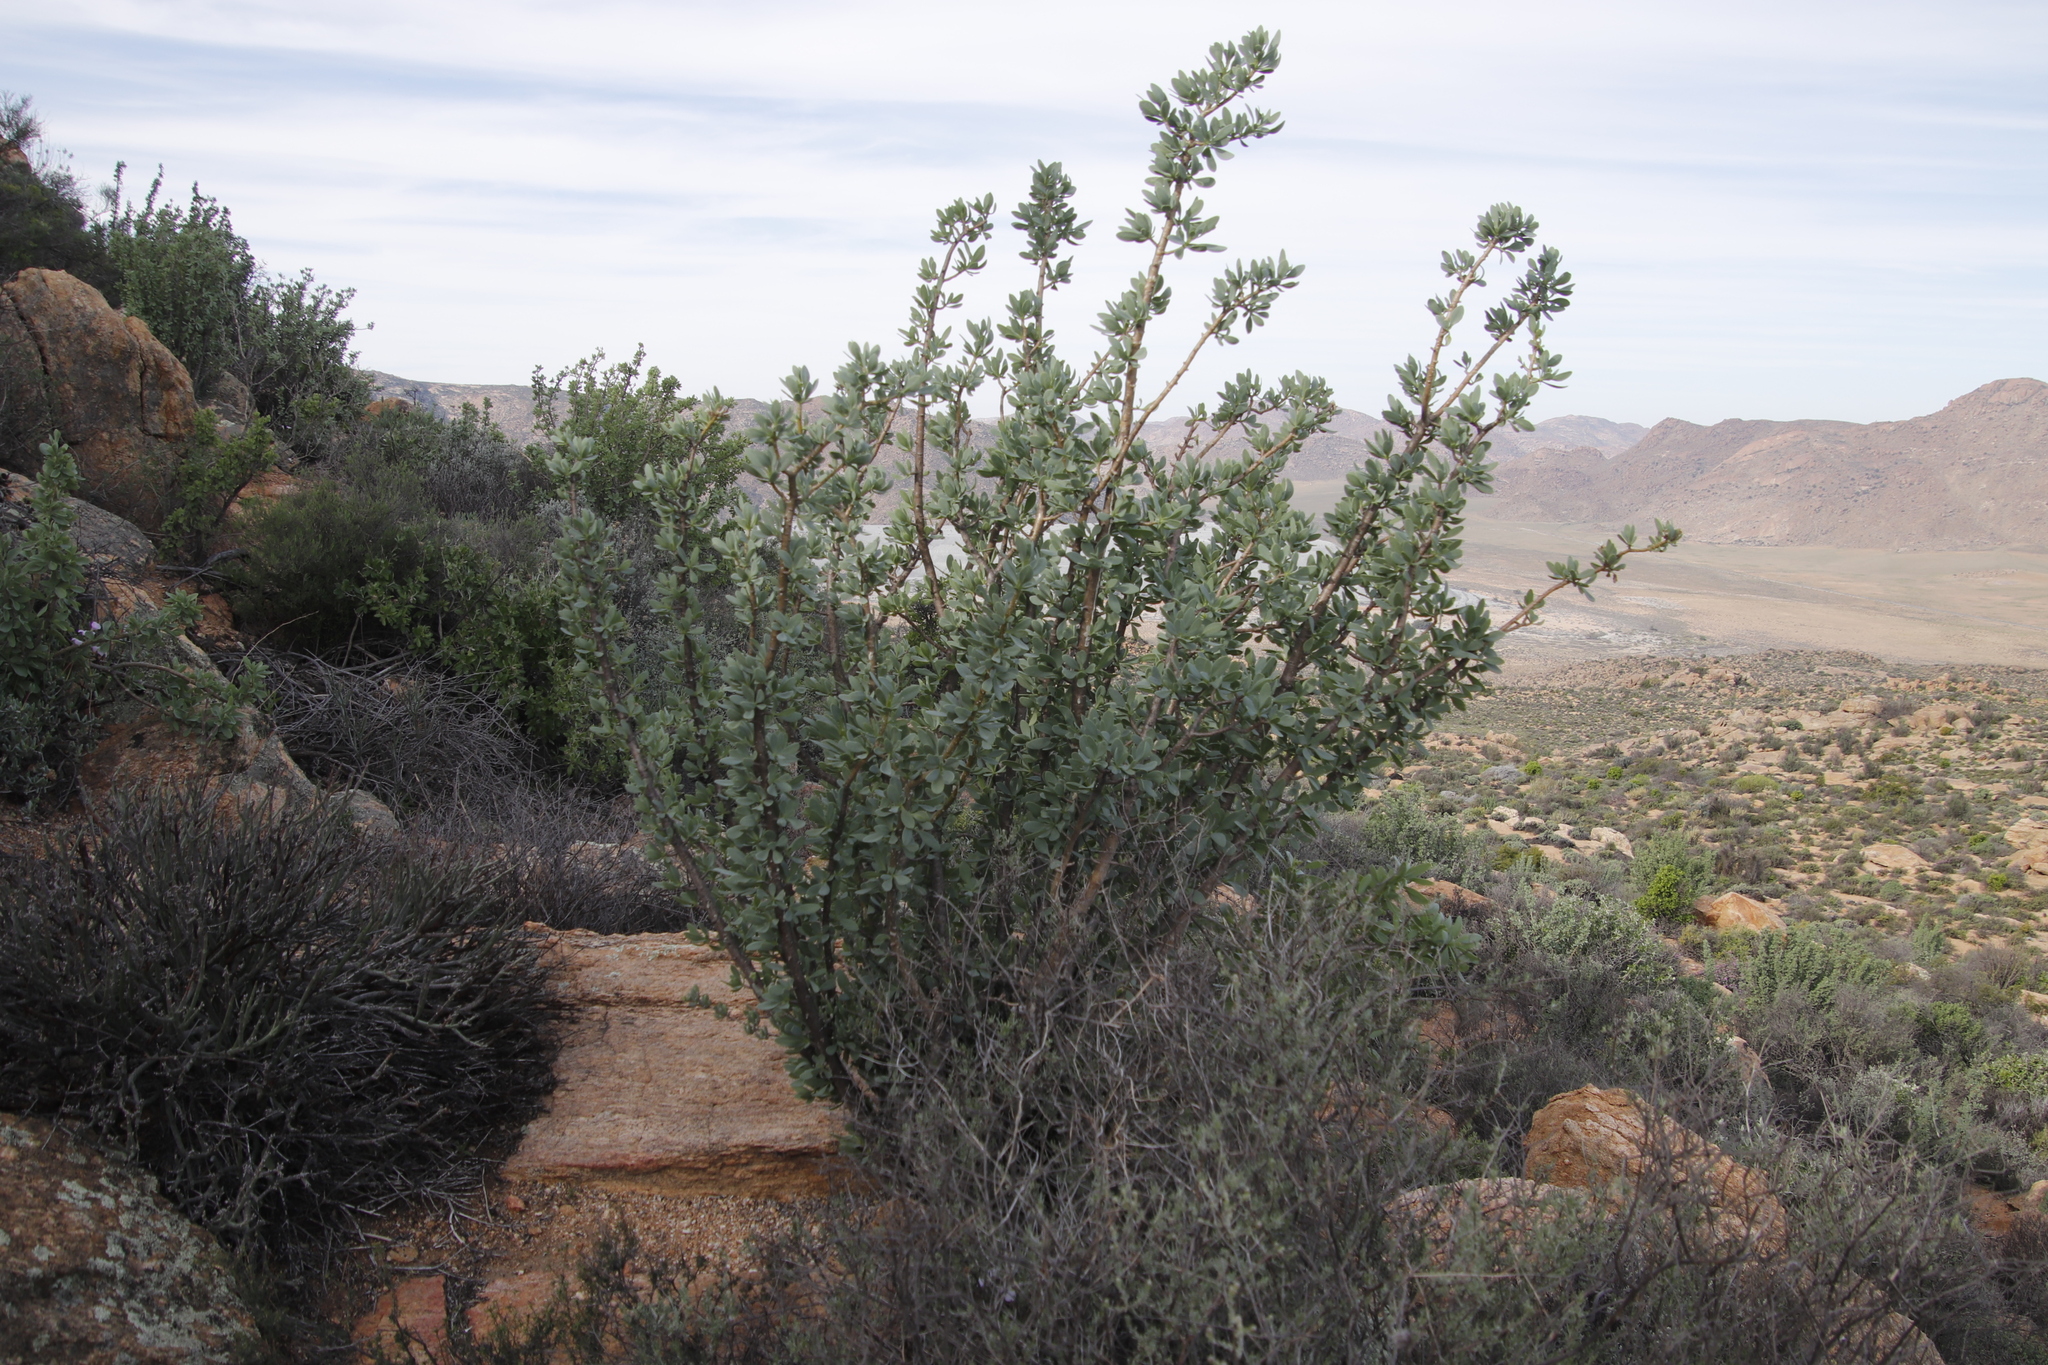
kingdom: Plantae
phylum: Tracheophyta
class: Magnoliopsida
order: Asterales
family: Asteraceae
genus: Othonna
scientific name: Othonna cerarioides
